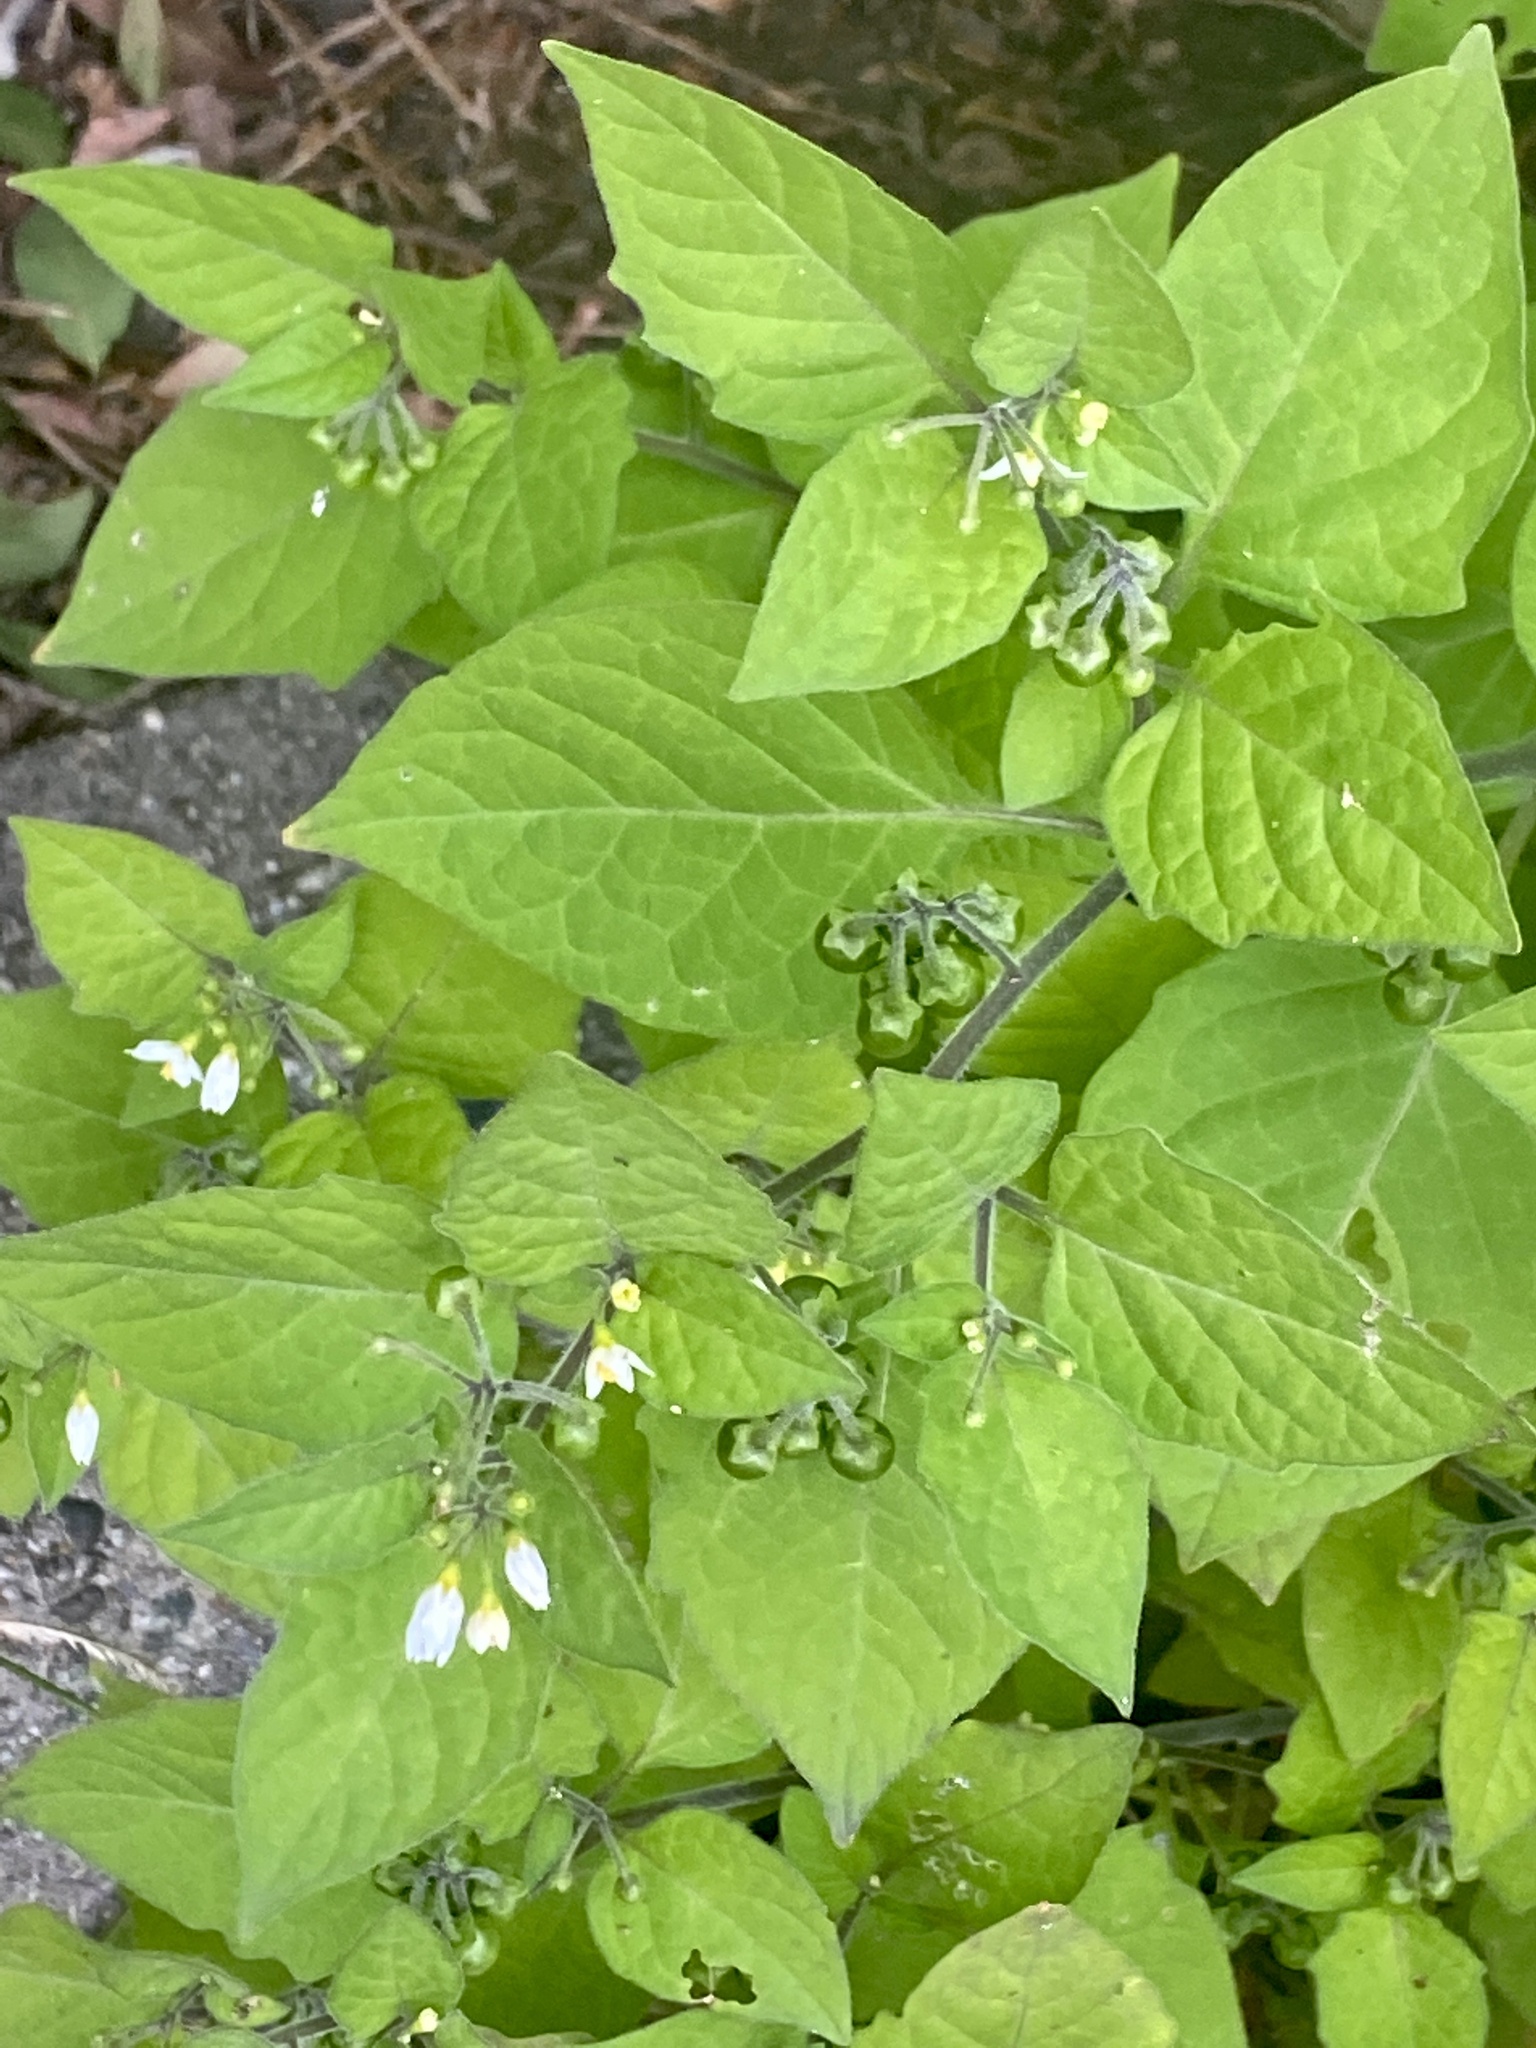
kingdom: Plantae
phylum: Tracheophyta
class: Magnoliopsida
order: Solanales
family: Solanaceae
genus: Solanum
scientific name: Solanum nigrum
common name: Black nightshade
